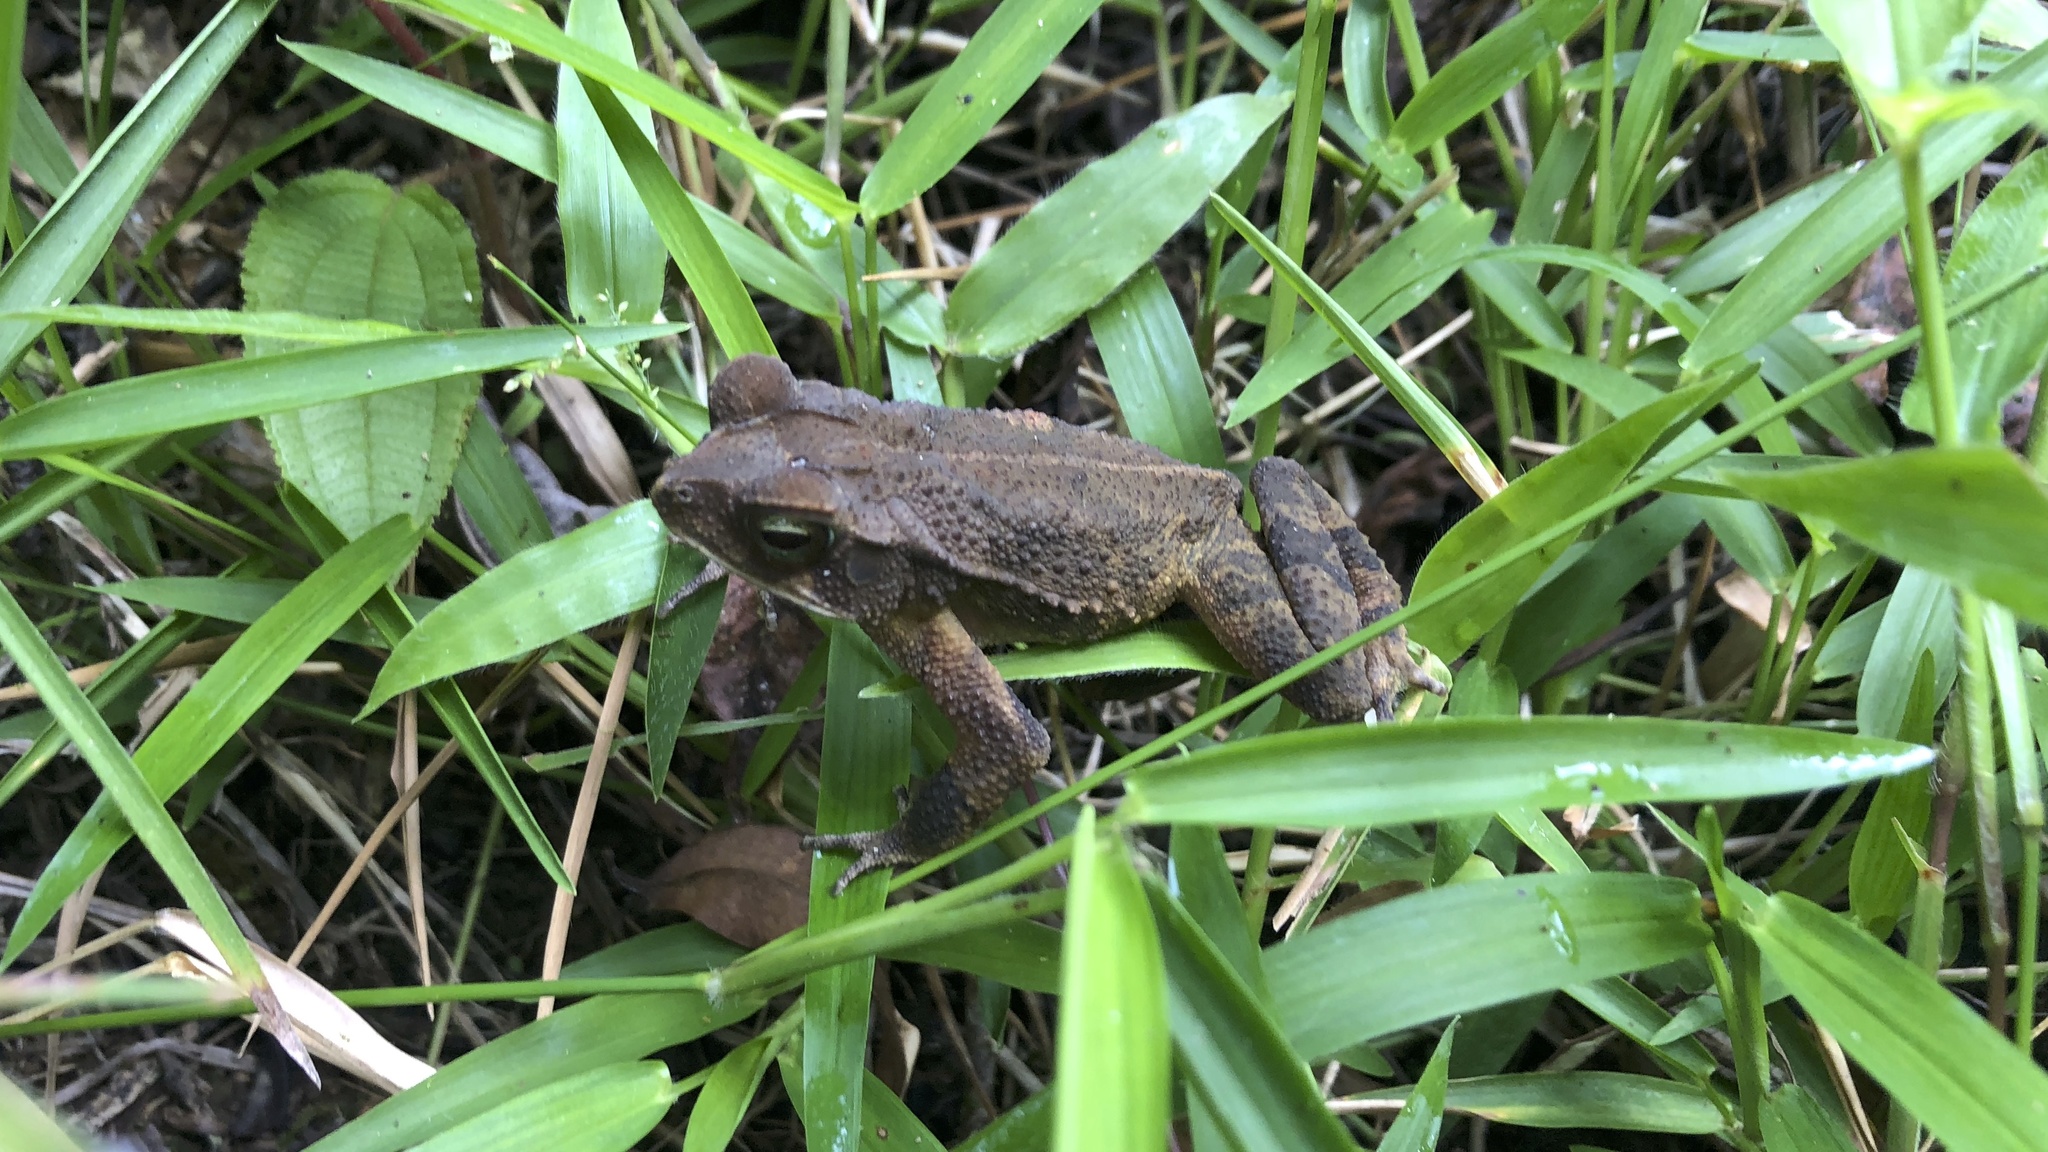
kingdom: Animalia
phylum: Chordata
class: Amphibia
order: Anura
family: Bufonidae
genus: Incilius
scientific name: Incilius coniferus
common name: Evergreen toad
